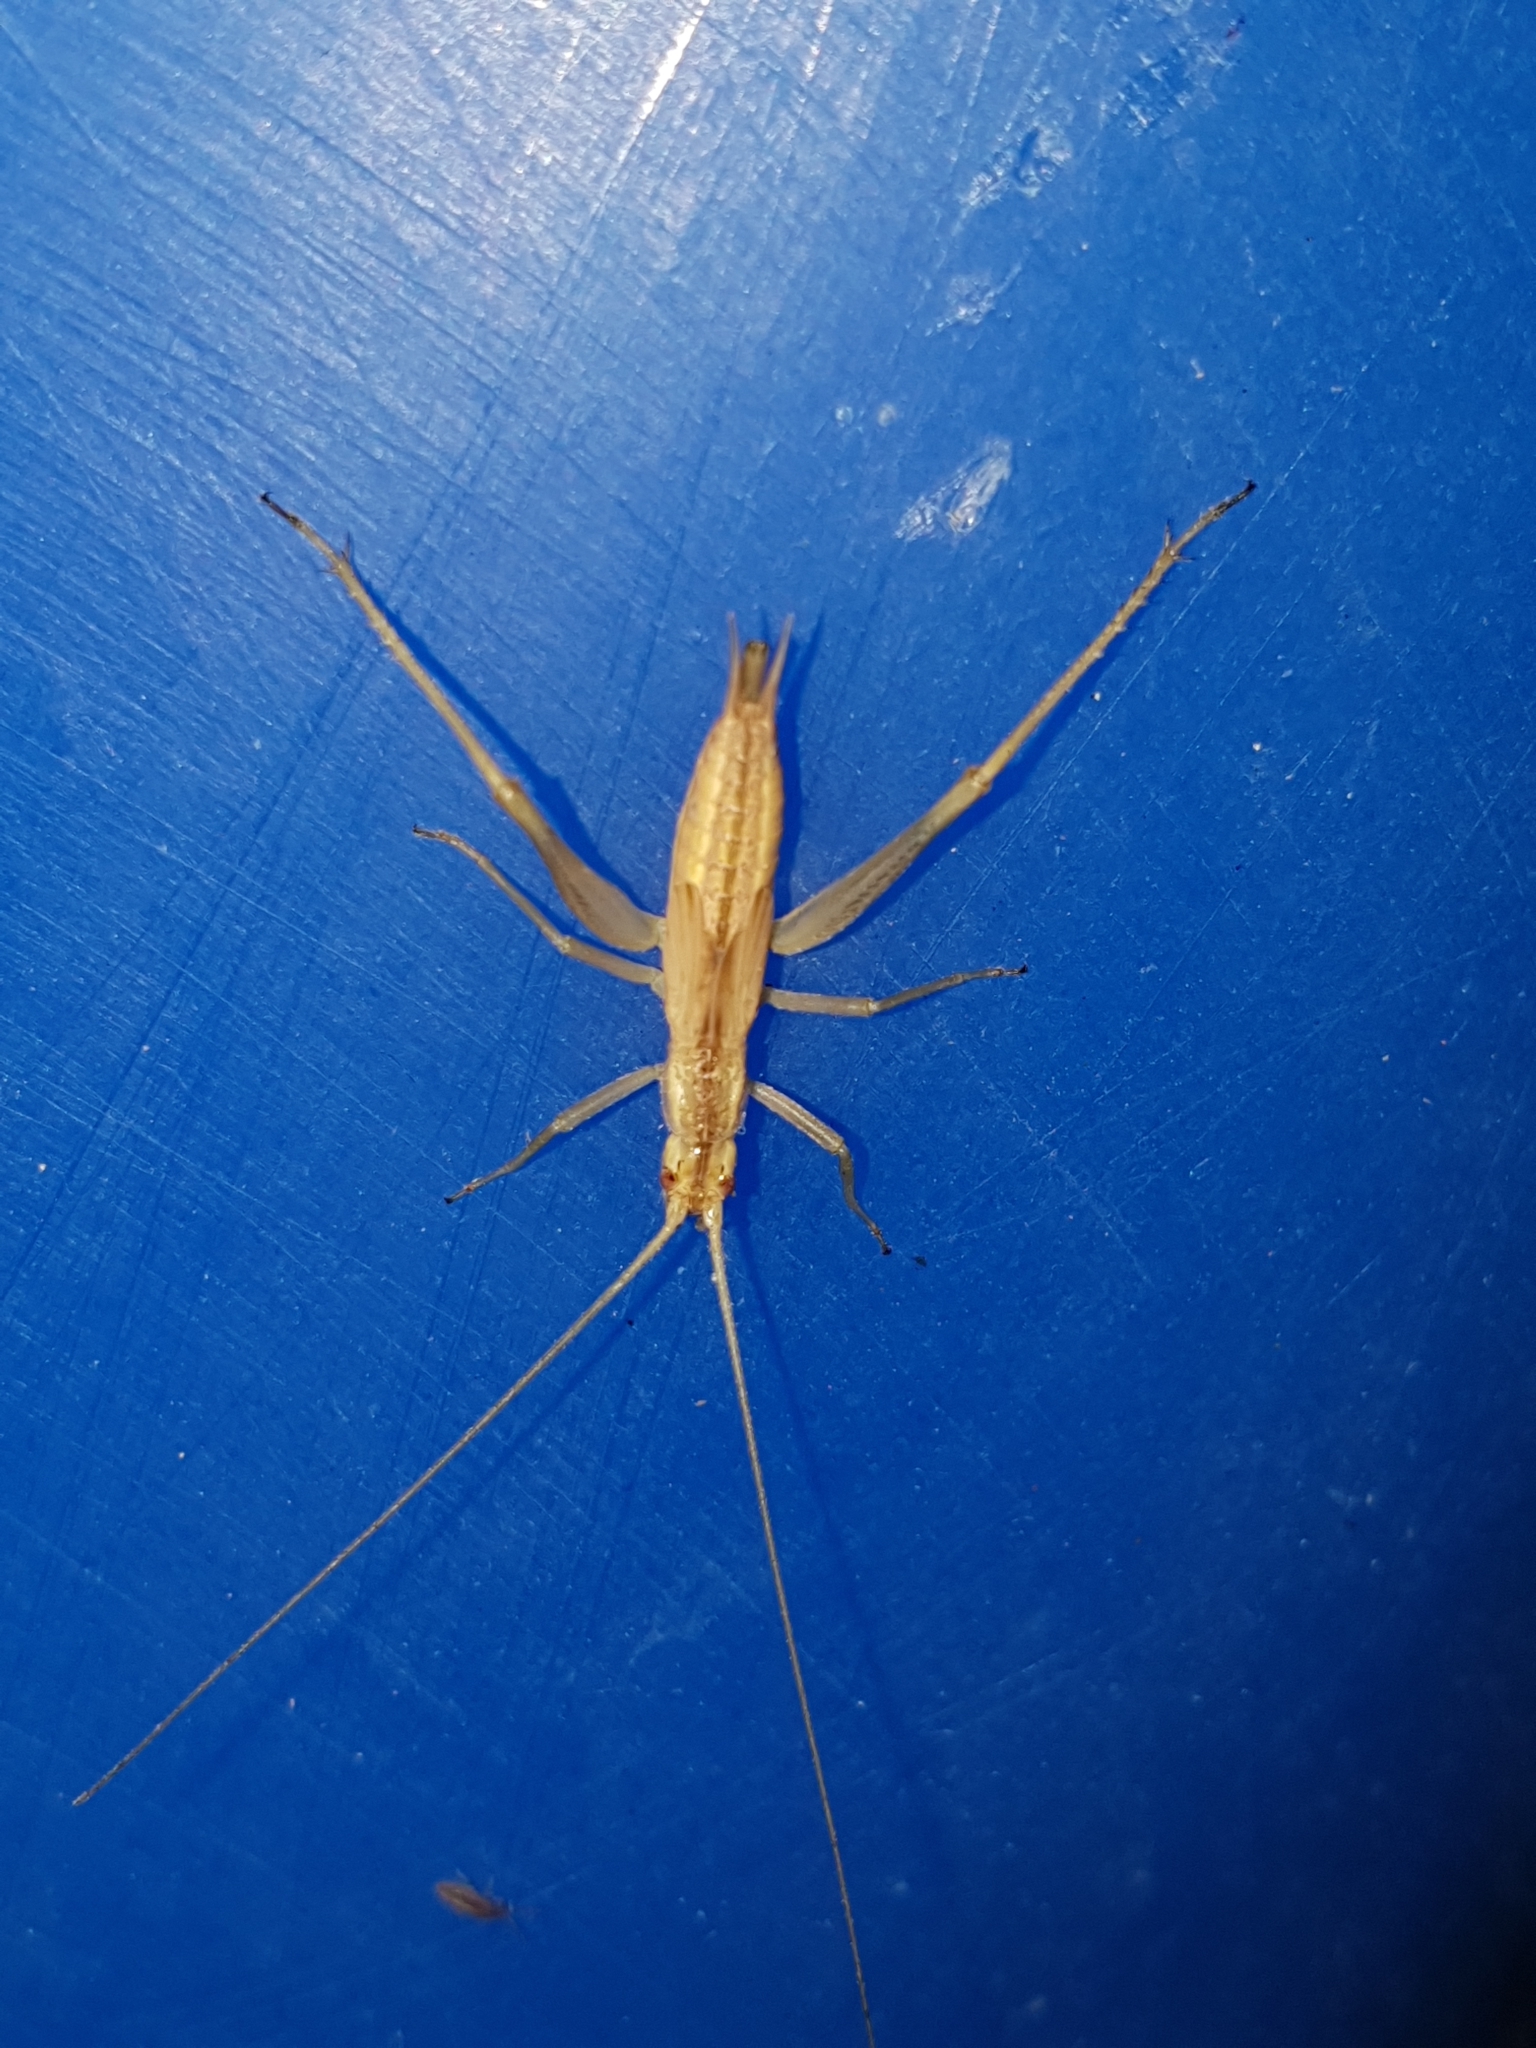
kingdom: Animalia
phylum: Arthropoda
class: Insecta
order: Orthoptera
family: Gryllidae
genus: Oecanthus
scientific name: Oecanthus pellucens
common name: Tree-cricket
